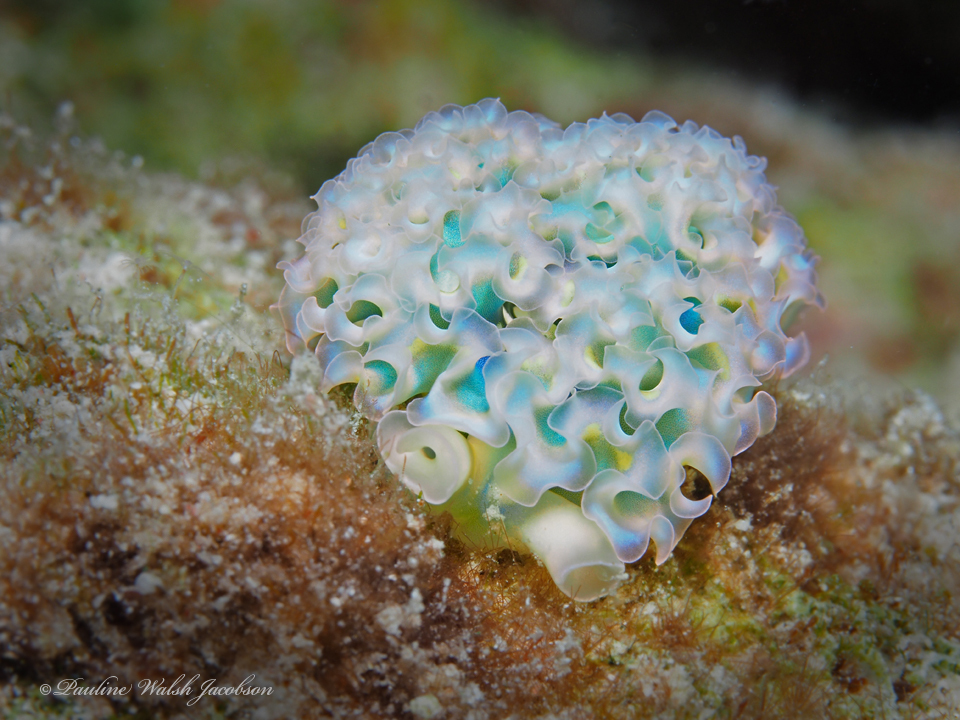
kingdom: Animalia
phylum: Mollusca
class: Gastropoda
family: Plakobranchidae
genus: Elysia
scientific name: Elysia crispata
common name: Lettuce slug
